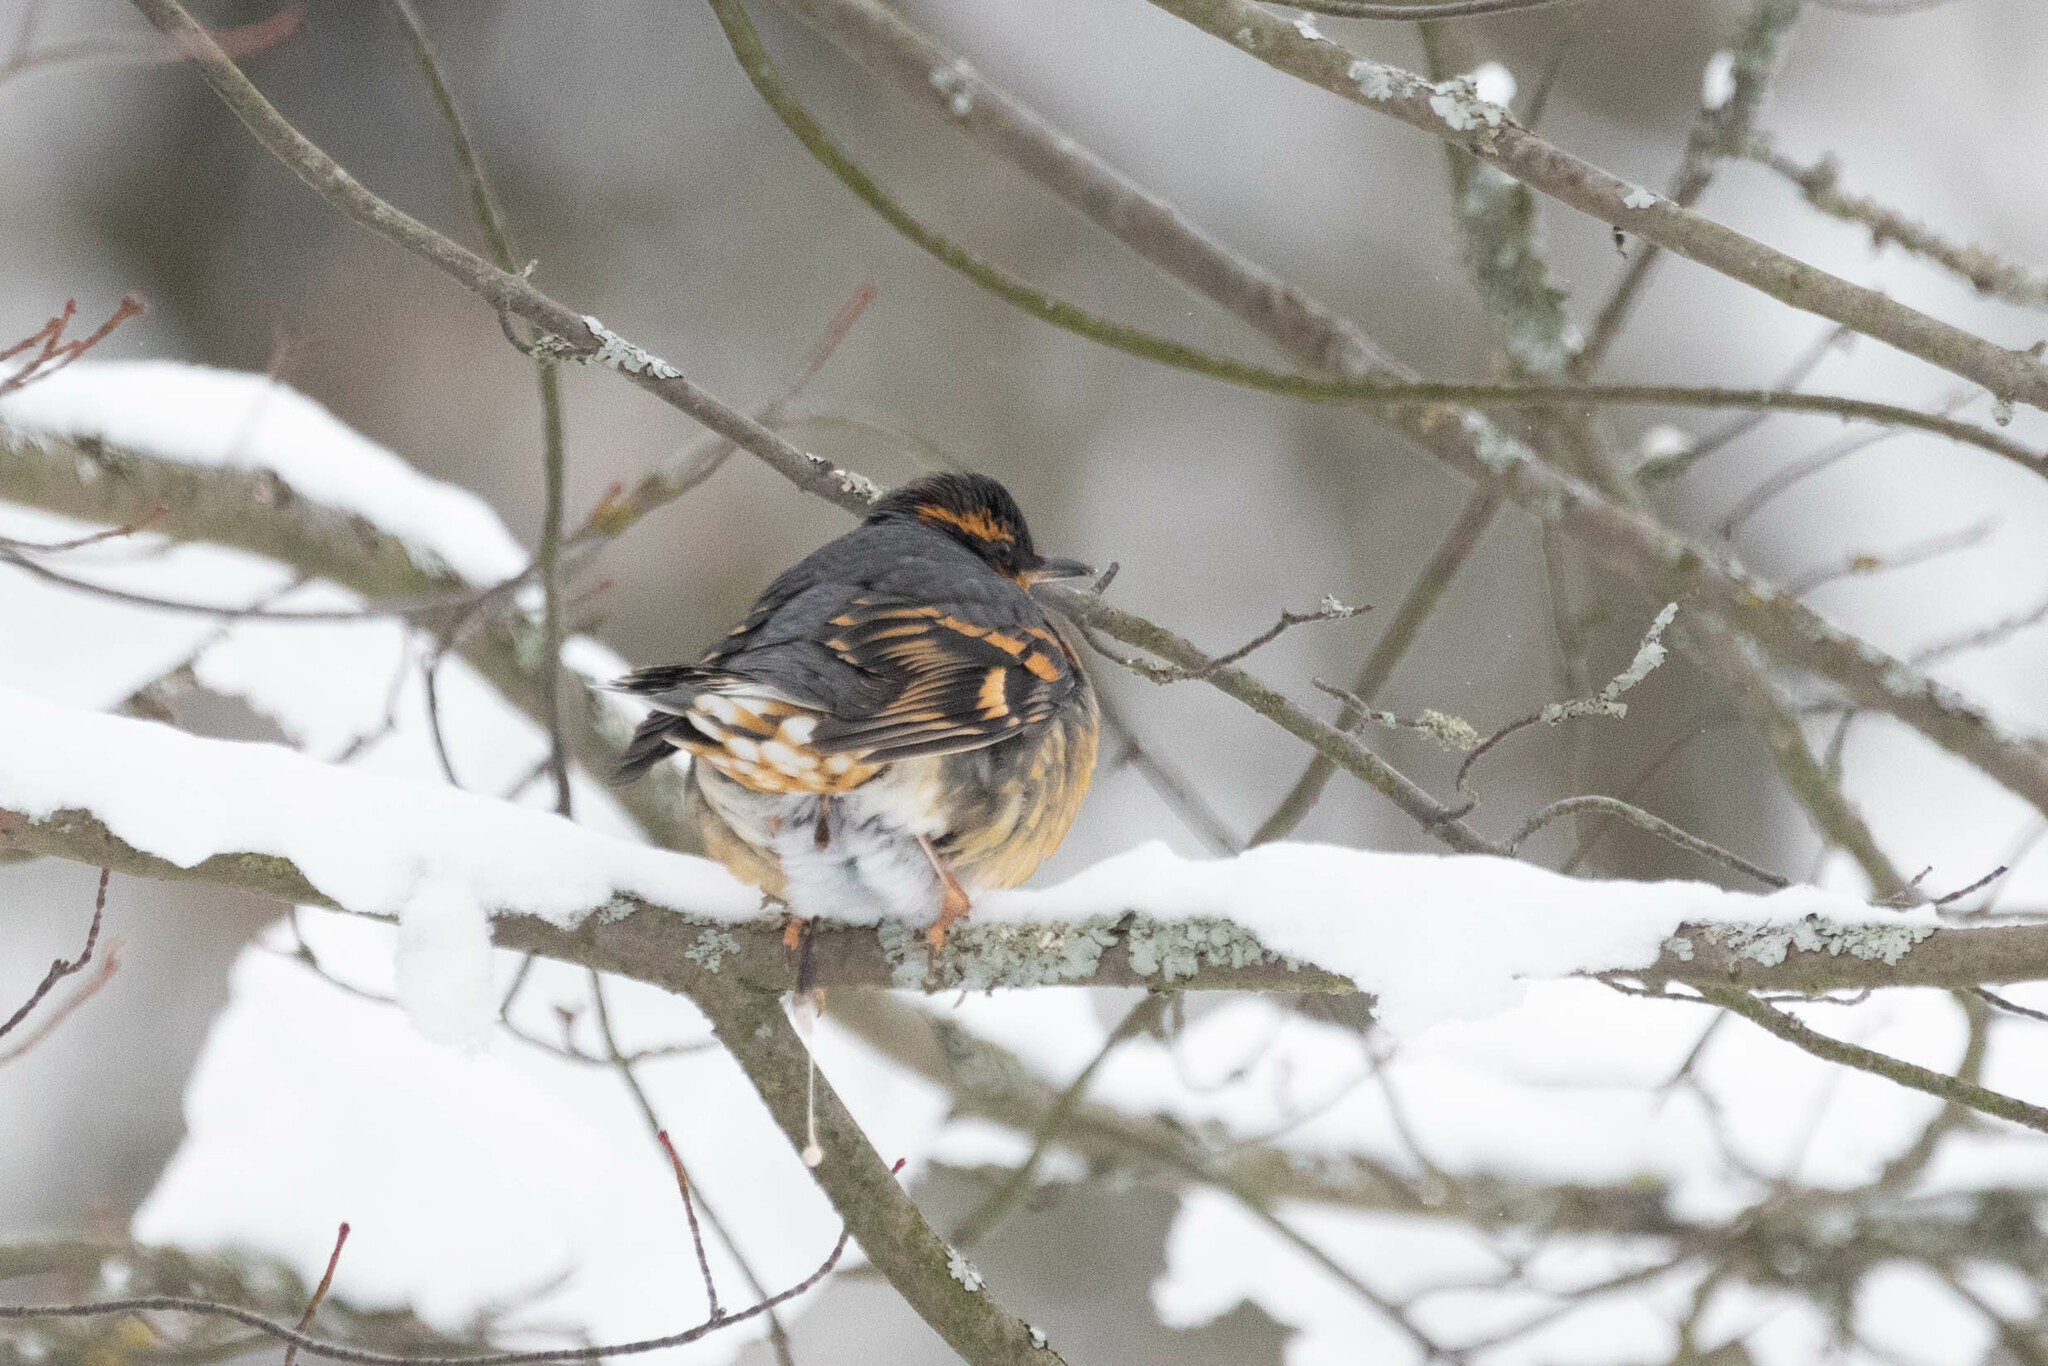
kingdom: Animalia
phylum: Chordata
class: Aves
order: Passeriformes
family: Turdidae
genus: Ixoreus
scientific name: Ixoreus naevius
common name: Varied thrush
